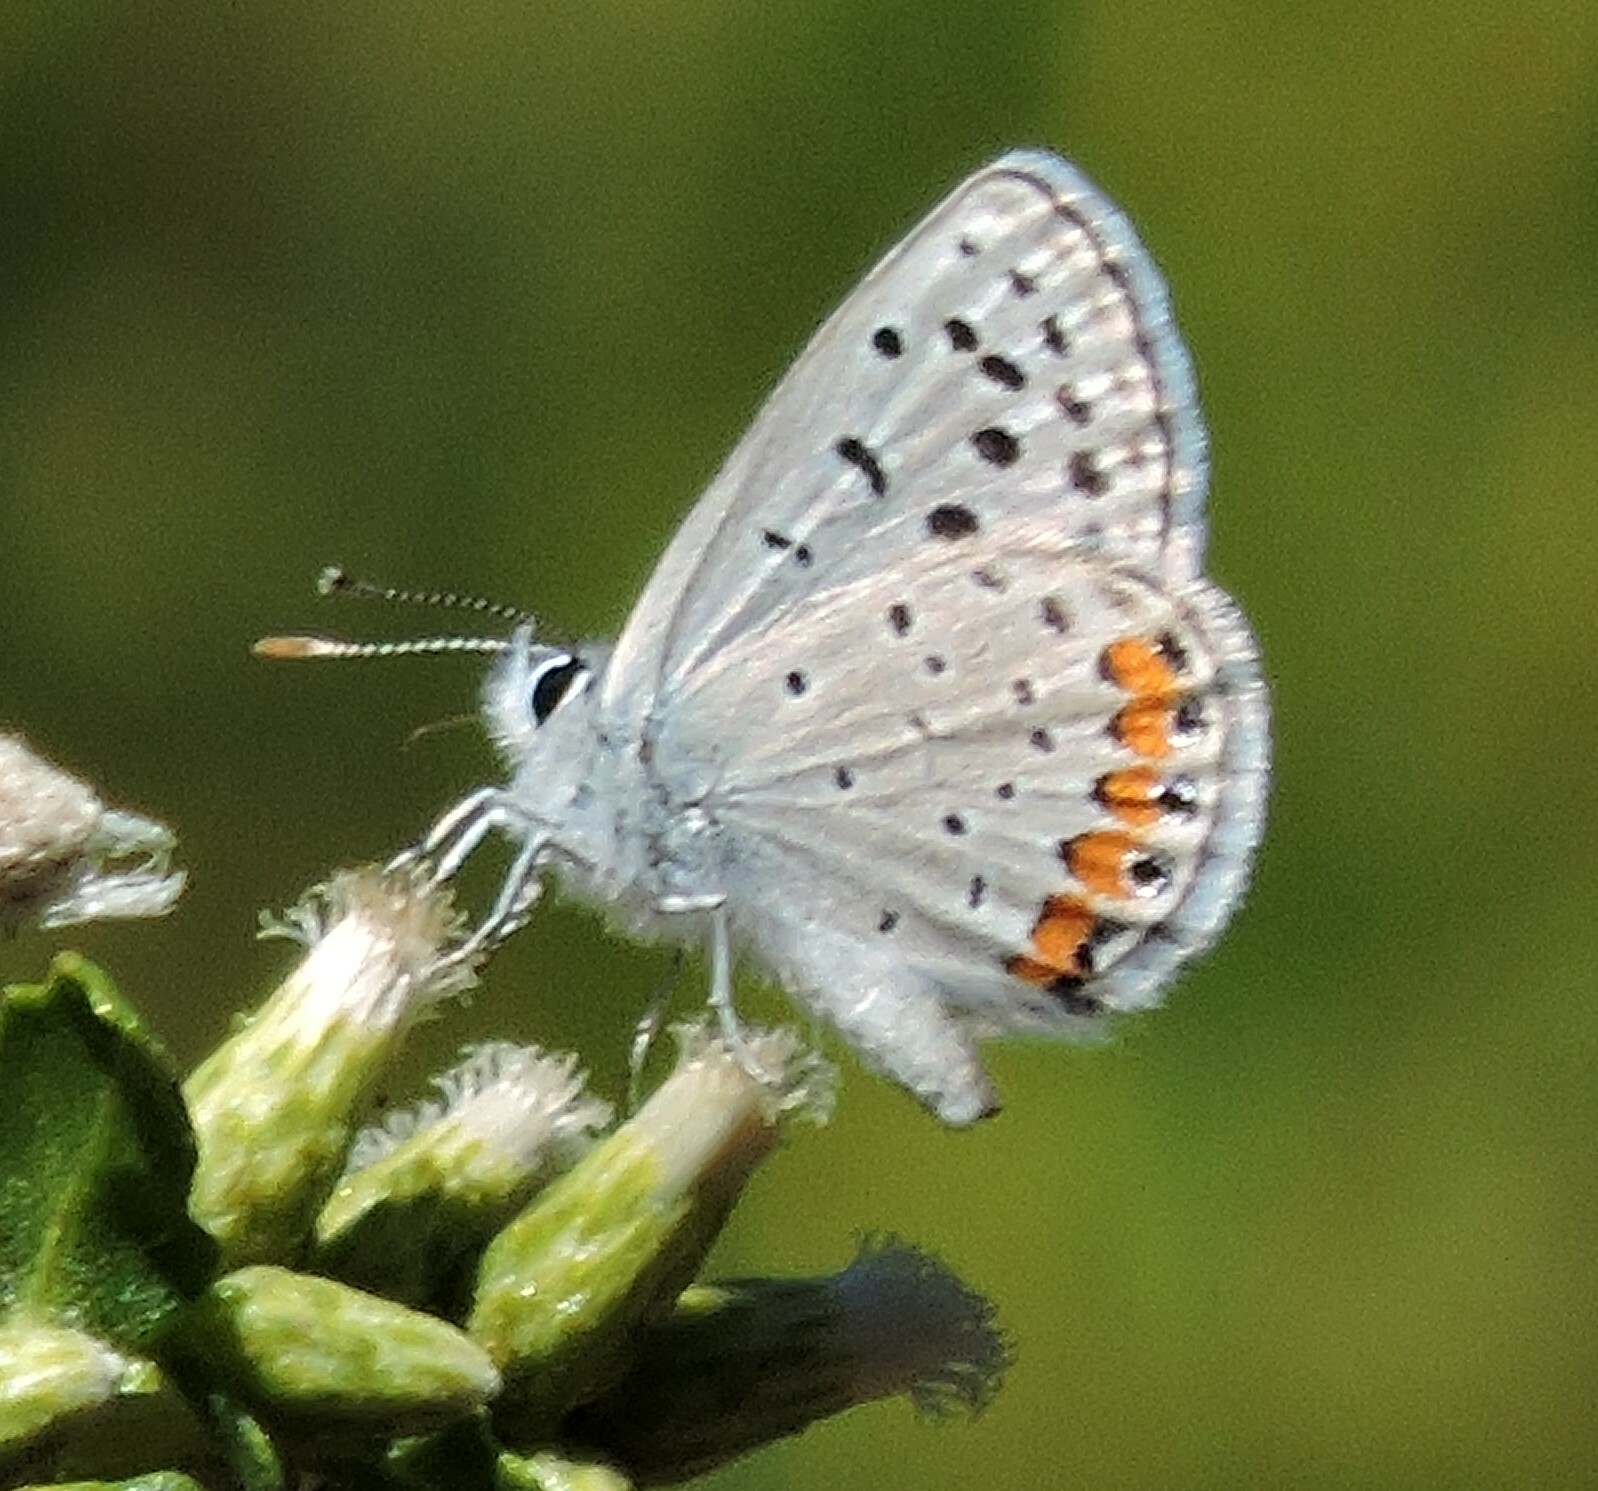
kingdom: Animalia
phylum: Arthropoda
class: Insecta
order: Lepidoptera
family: Lycaenidae
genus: Icaricia
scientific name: Icaricia acmon
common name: Acmon blue
